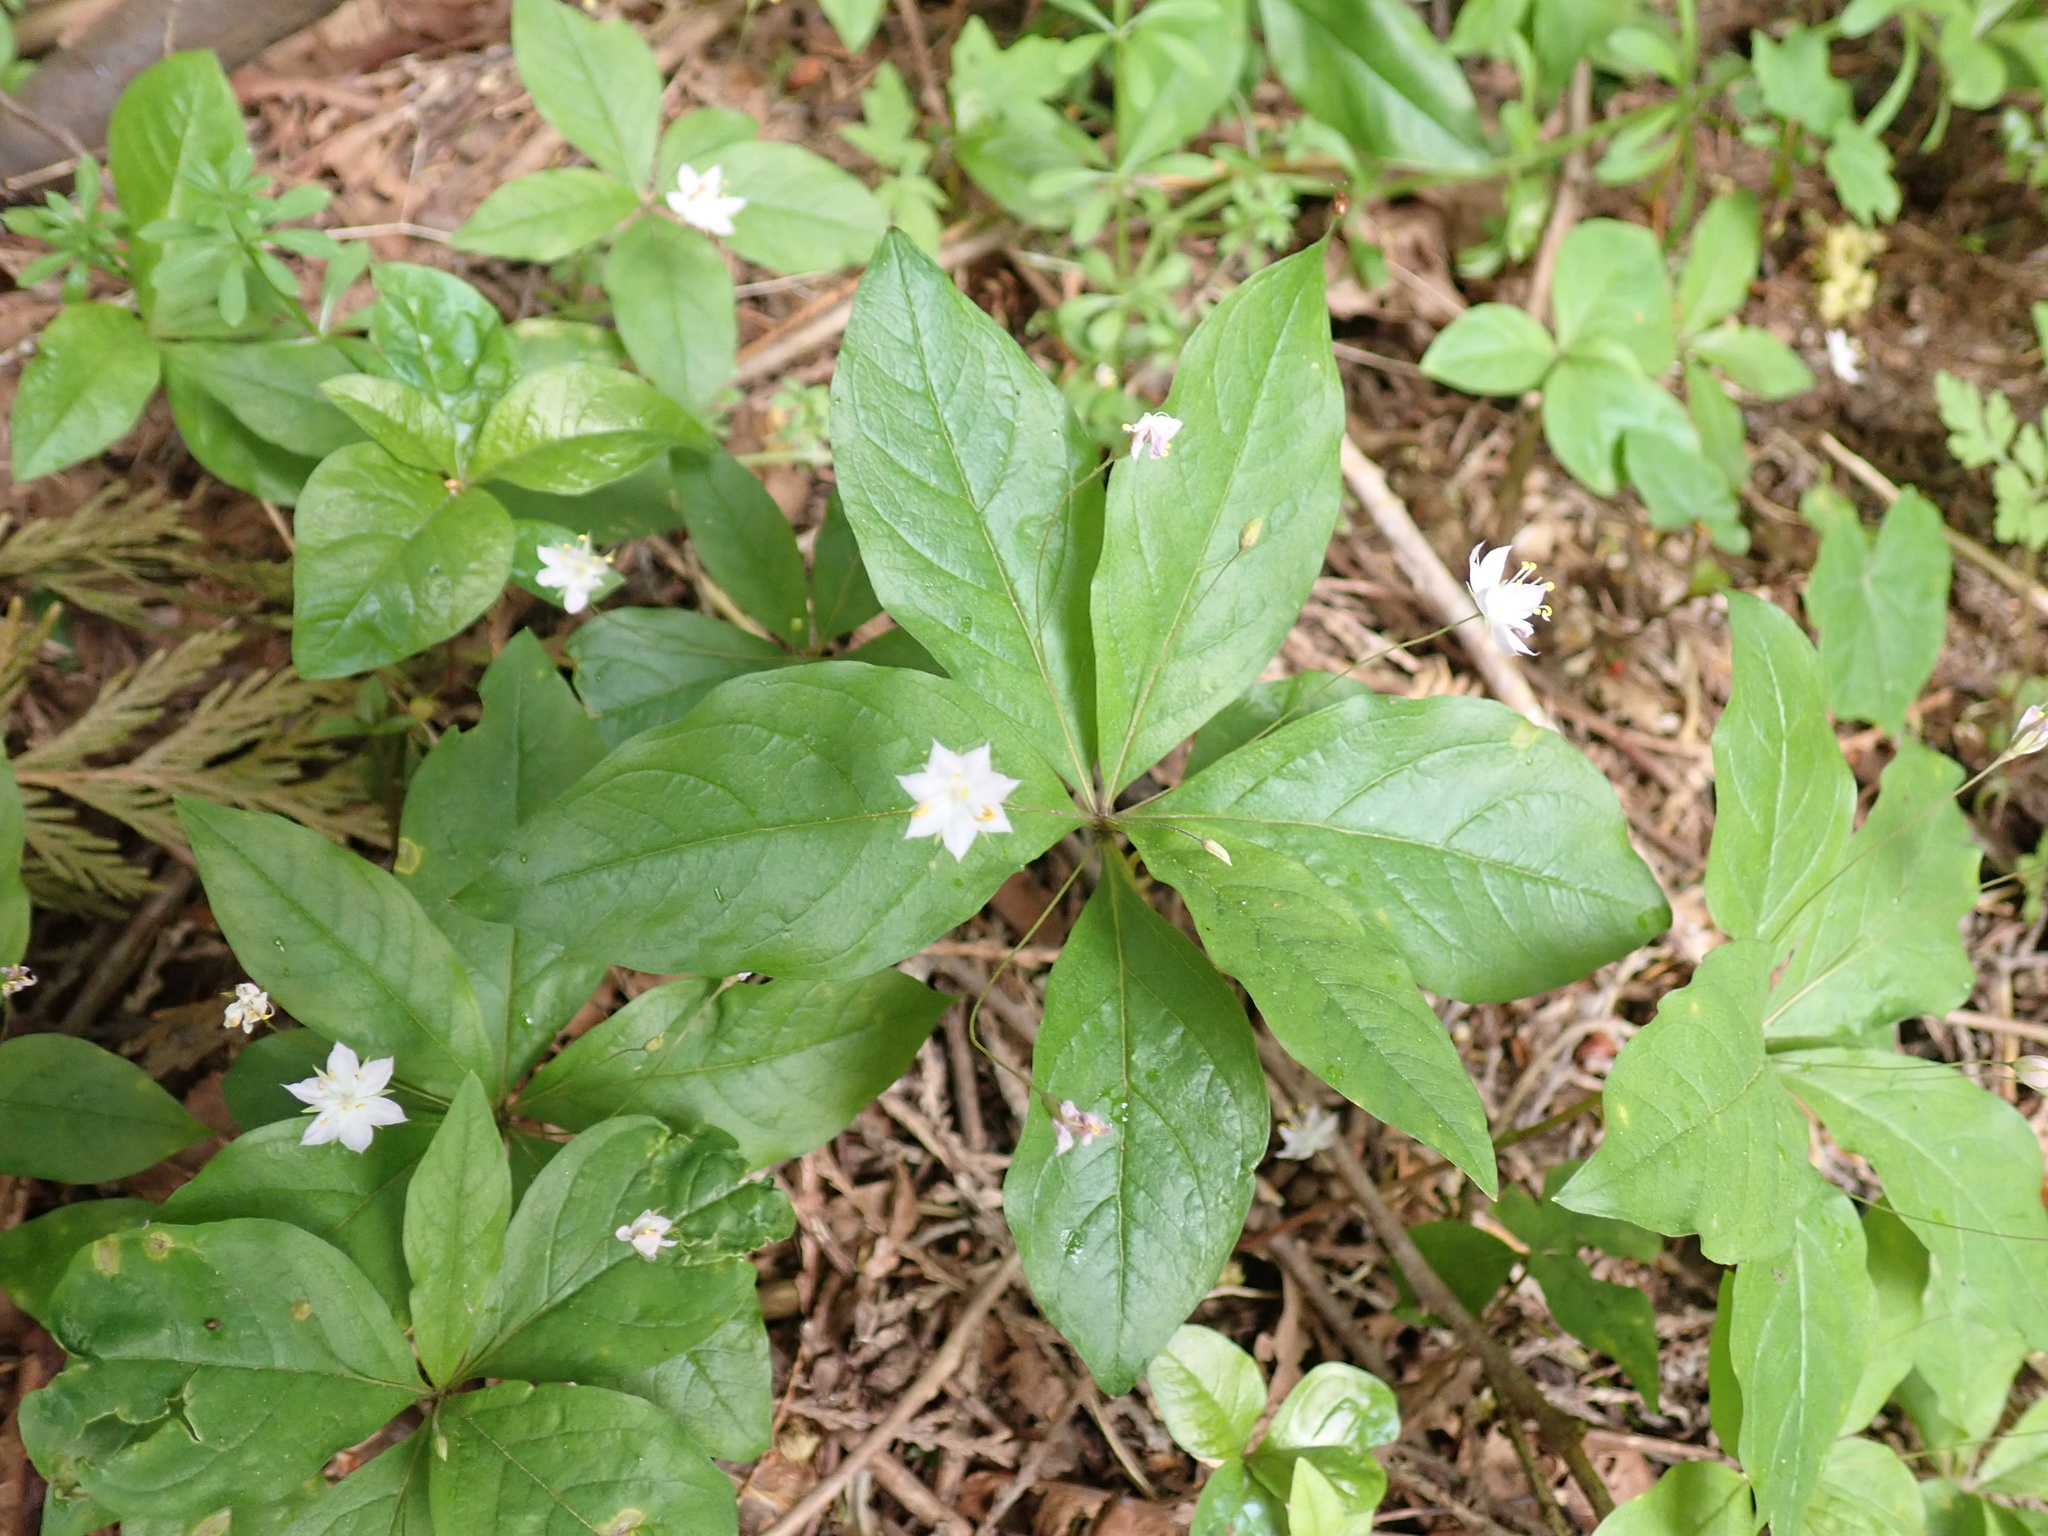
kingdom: Plantae
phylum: Tracheophyta
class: Magnoliopsida
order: Ericales
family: Primulaceae
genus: Lysimachia
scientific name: Lysimachia latifolia
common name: Pacific starflower
